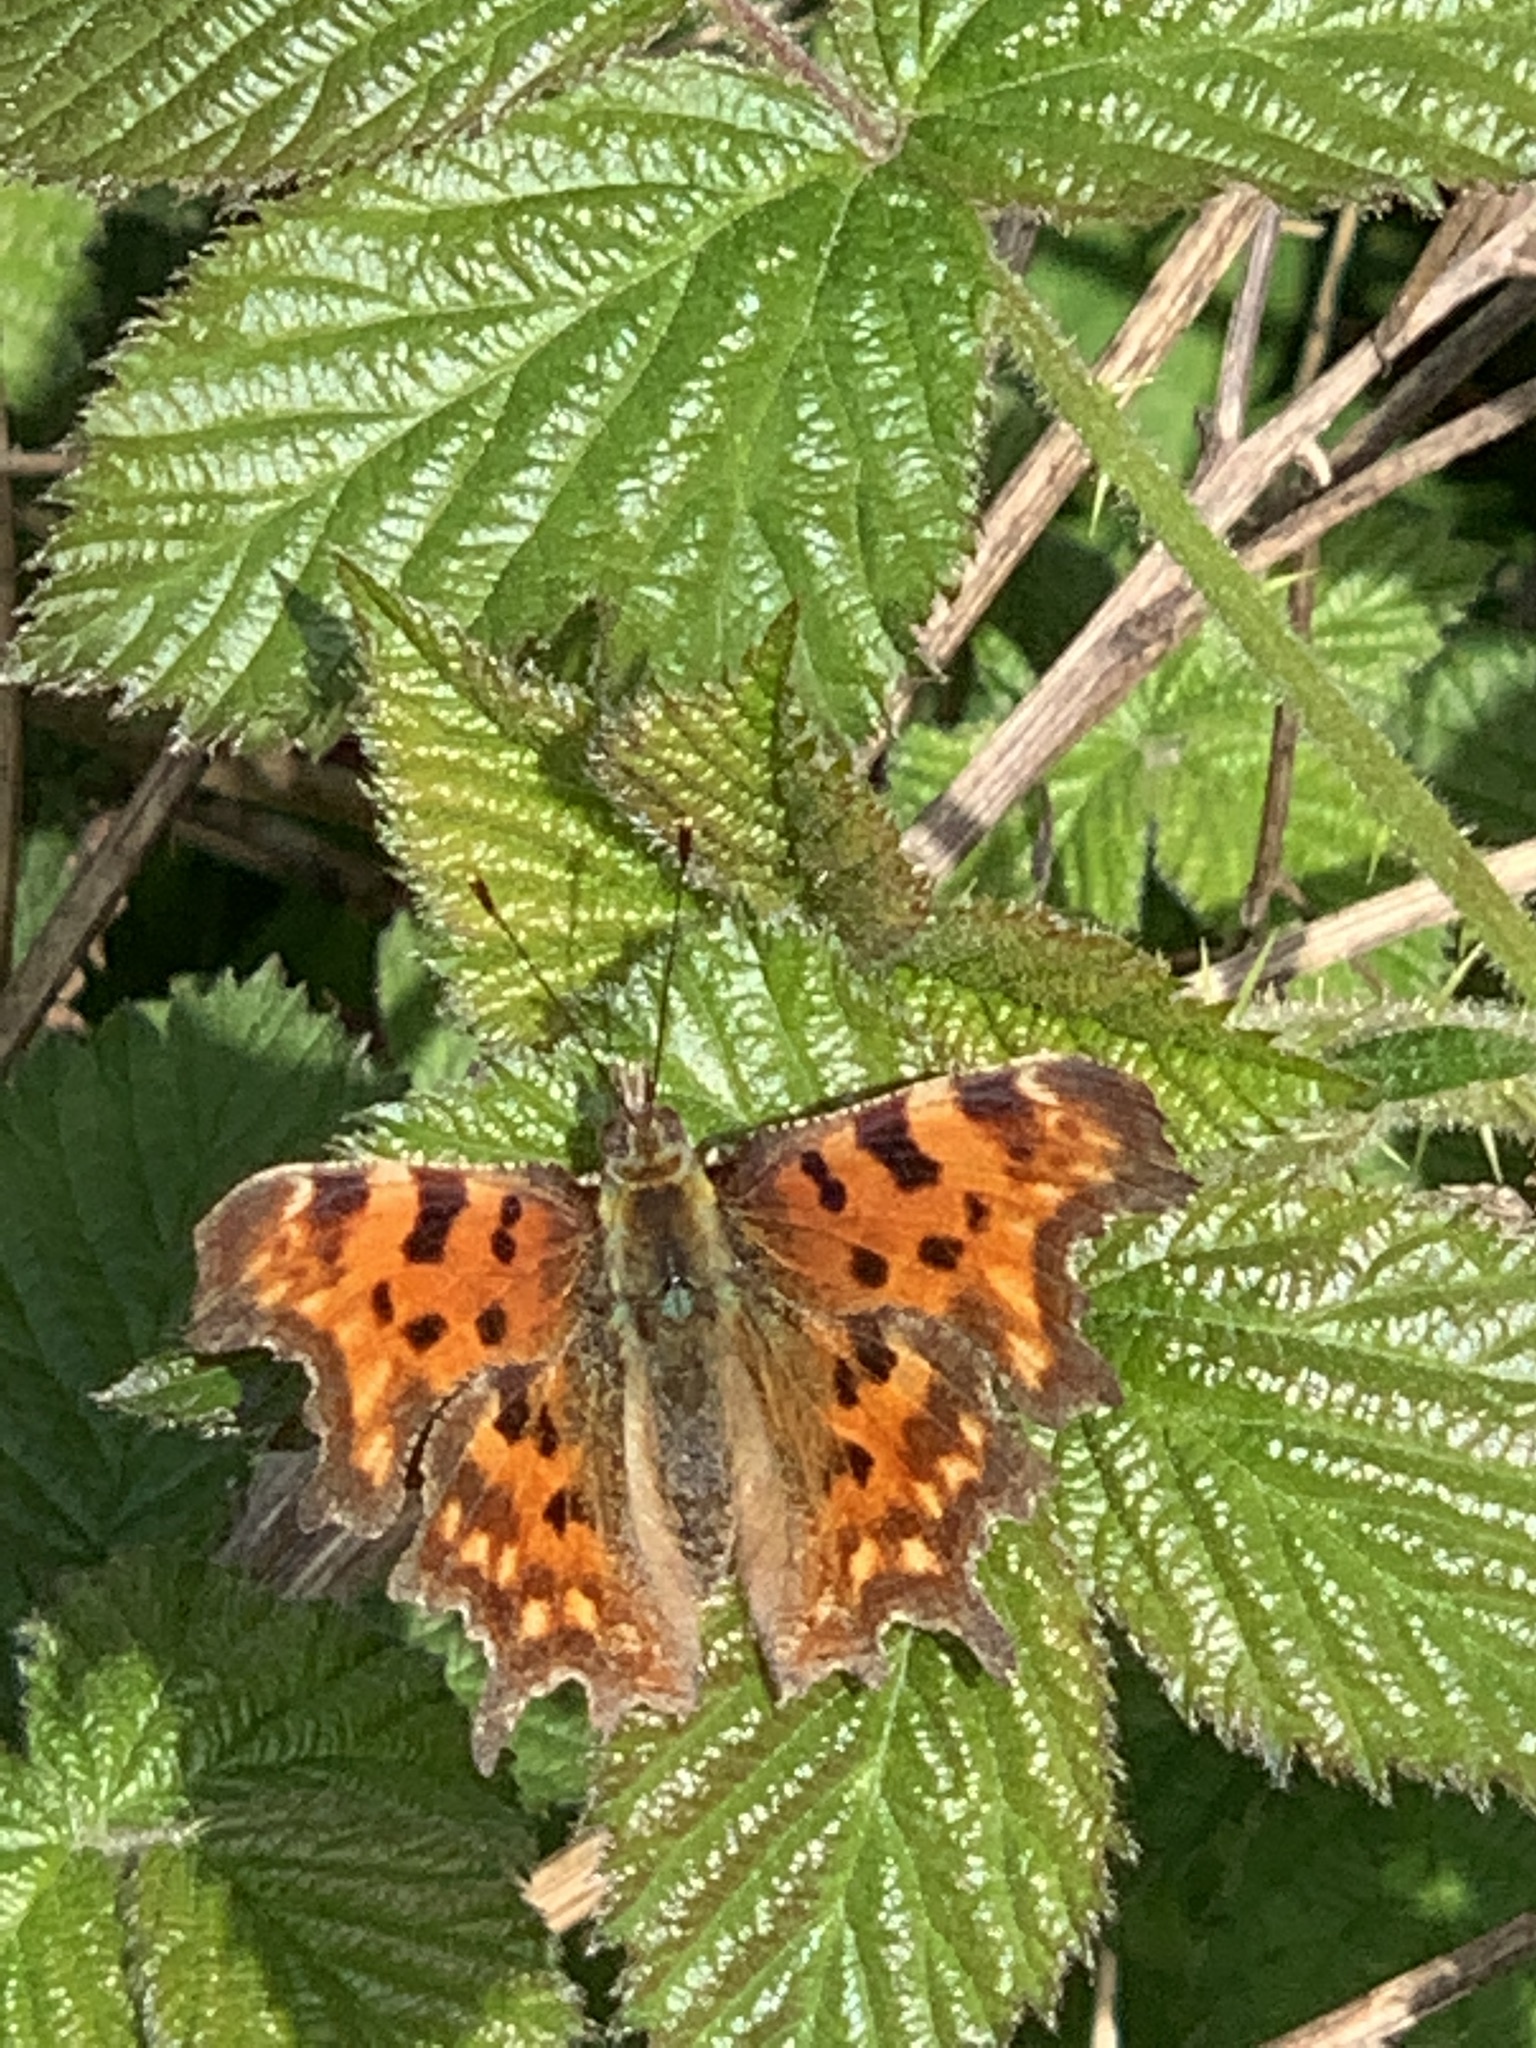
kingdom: Animalia
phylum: Arthropoda
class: Insecta
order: Lepidoptera
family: Nymphalidae
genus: Polygonia
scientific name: Polygonia c-album
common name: Comma
